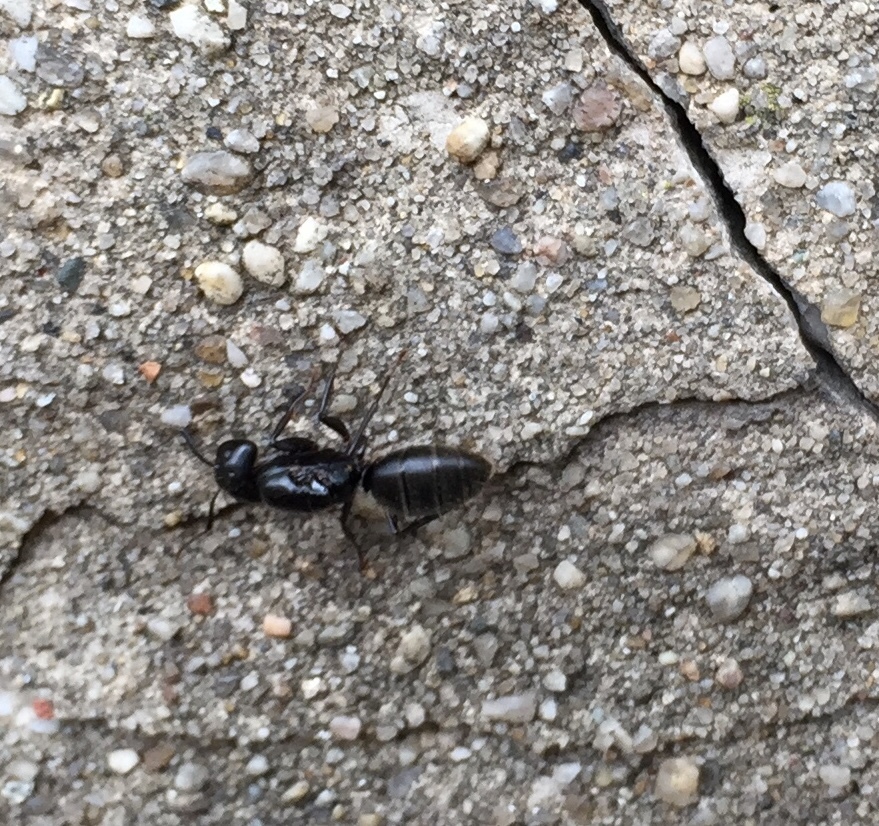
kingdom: Animalia
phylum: Arthropoda
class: Insecta
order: Hymenoptera
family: Formicidae
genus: Camponotus
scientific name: Camponotus pennsylvanicus
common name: Black carpenter ant
